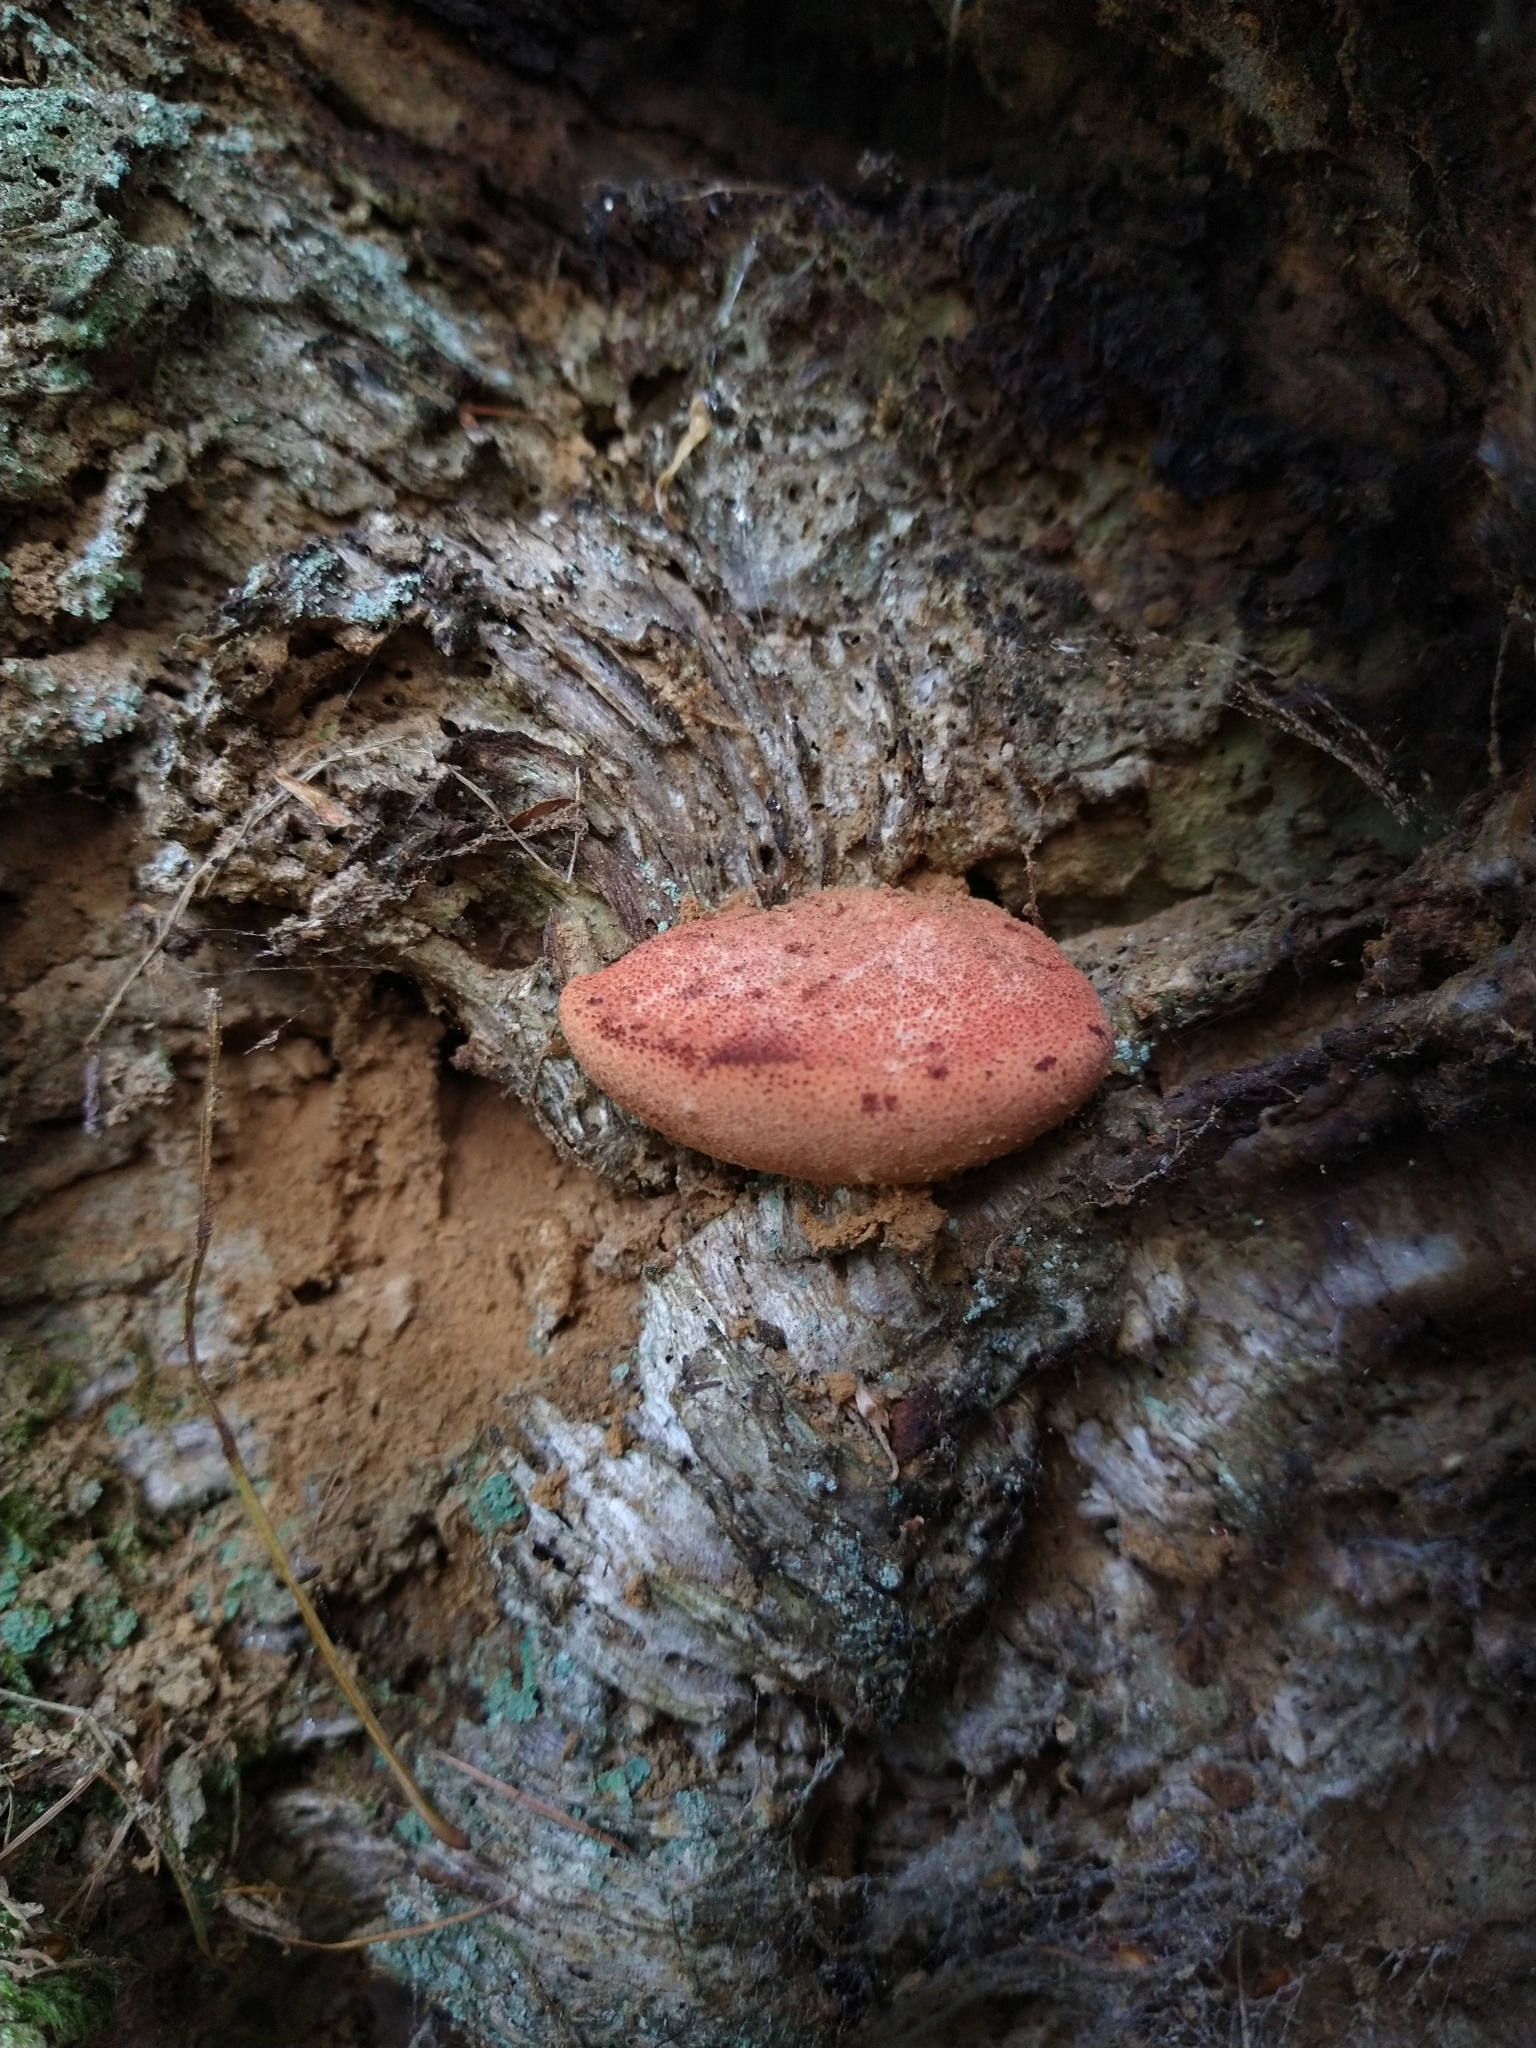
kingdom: Fungi
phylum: Basidiomycota
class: Agaricomycetes
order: Agaricales
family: Fistulinaceae
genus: Fistulina
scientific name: Fistulina hepatica
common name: Beef-steak fungus
